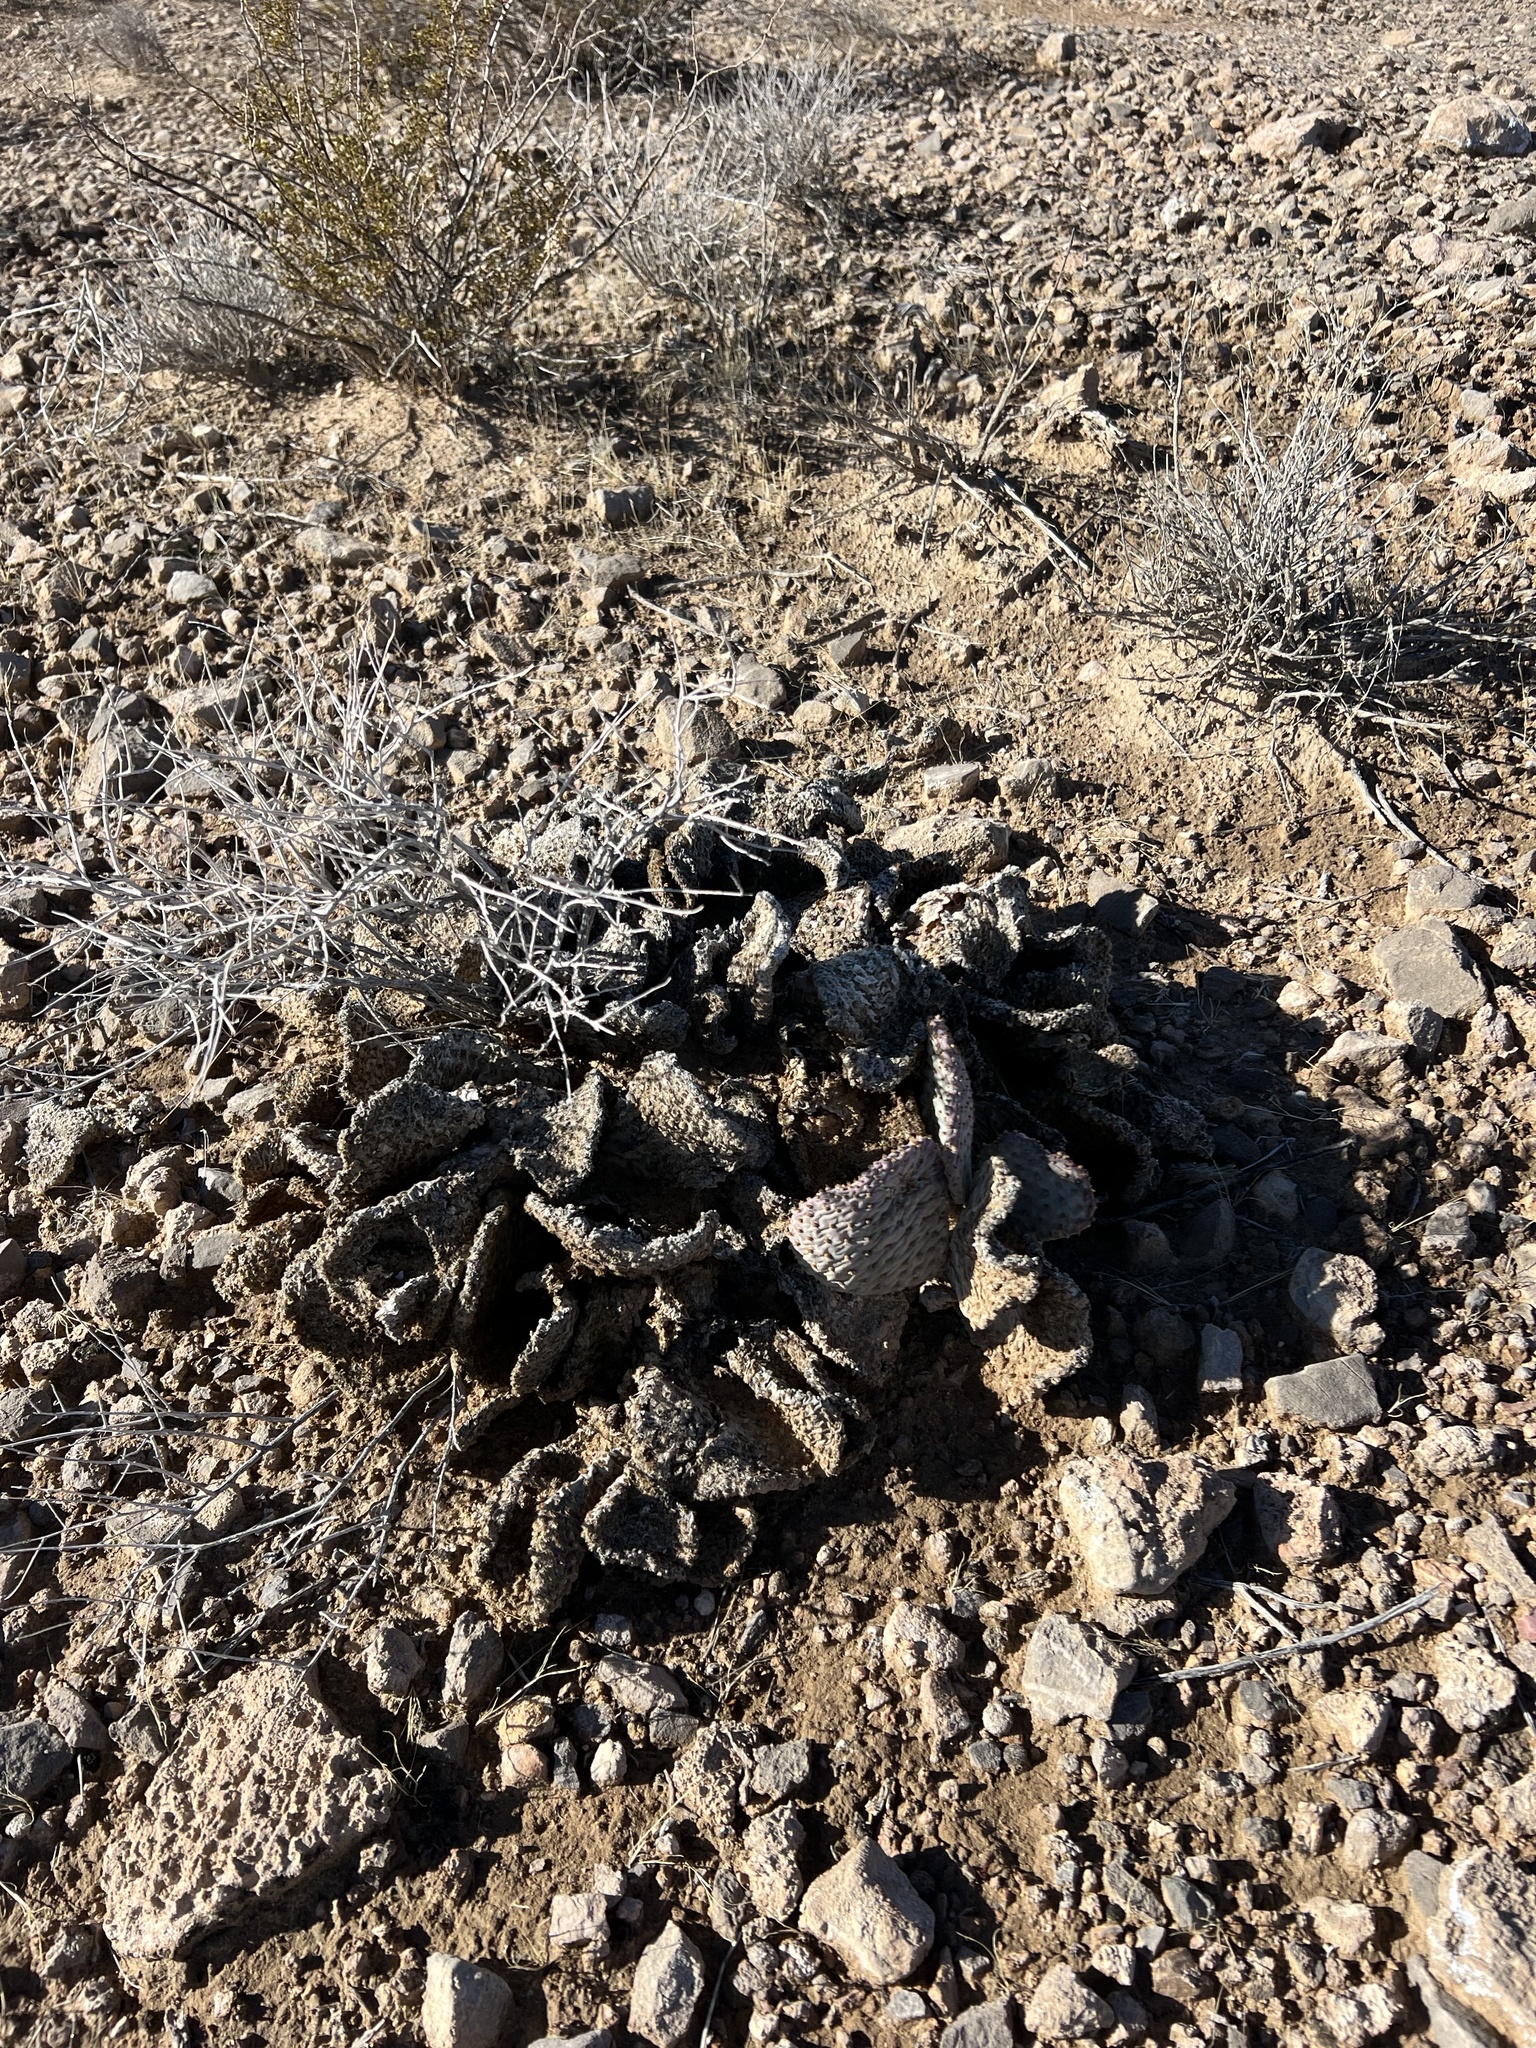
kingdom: Plantae
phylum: Tracheophyta
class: Magnoliopsida
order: Caryophyllales
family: Cactaceae
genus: Opuntia
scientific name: Opuntia basilaris
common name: Beavertail prickly-pear
